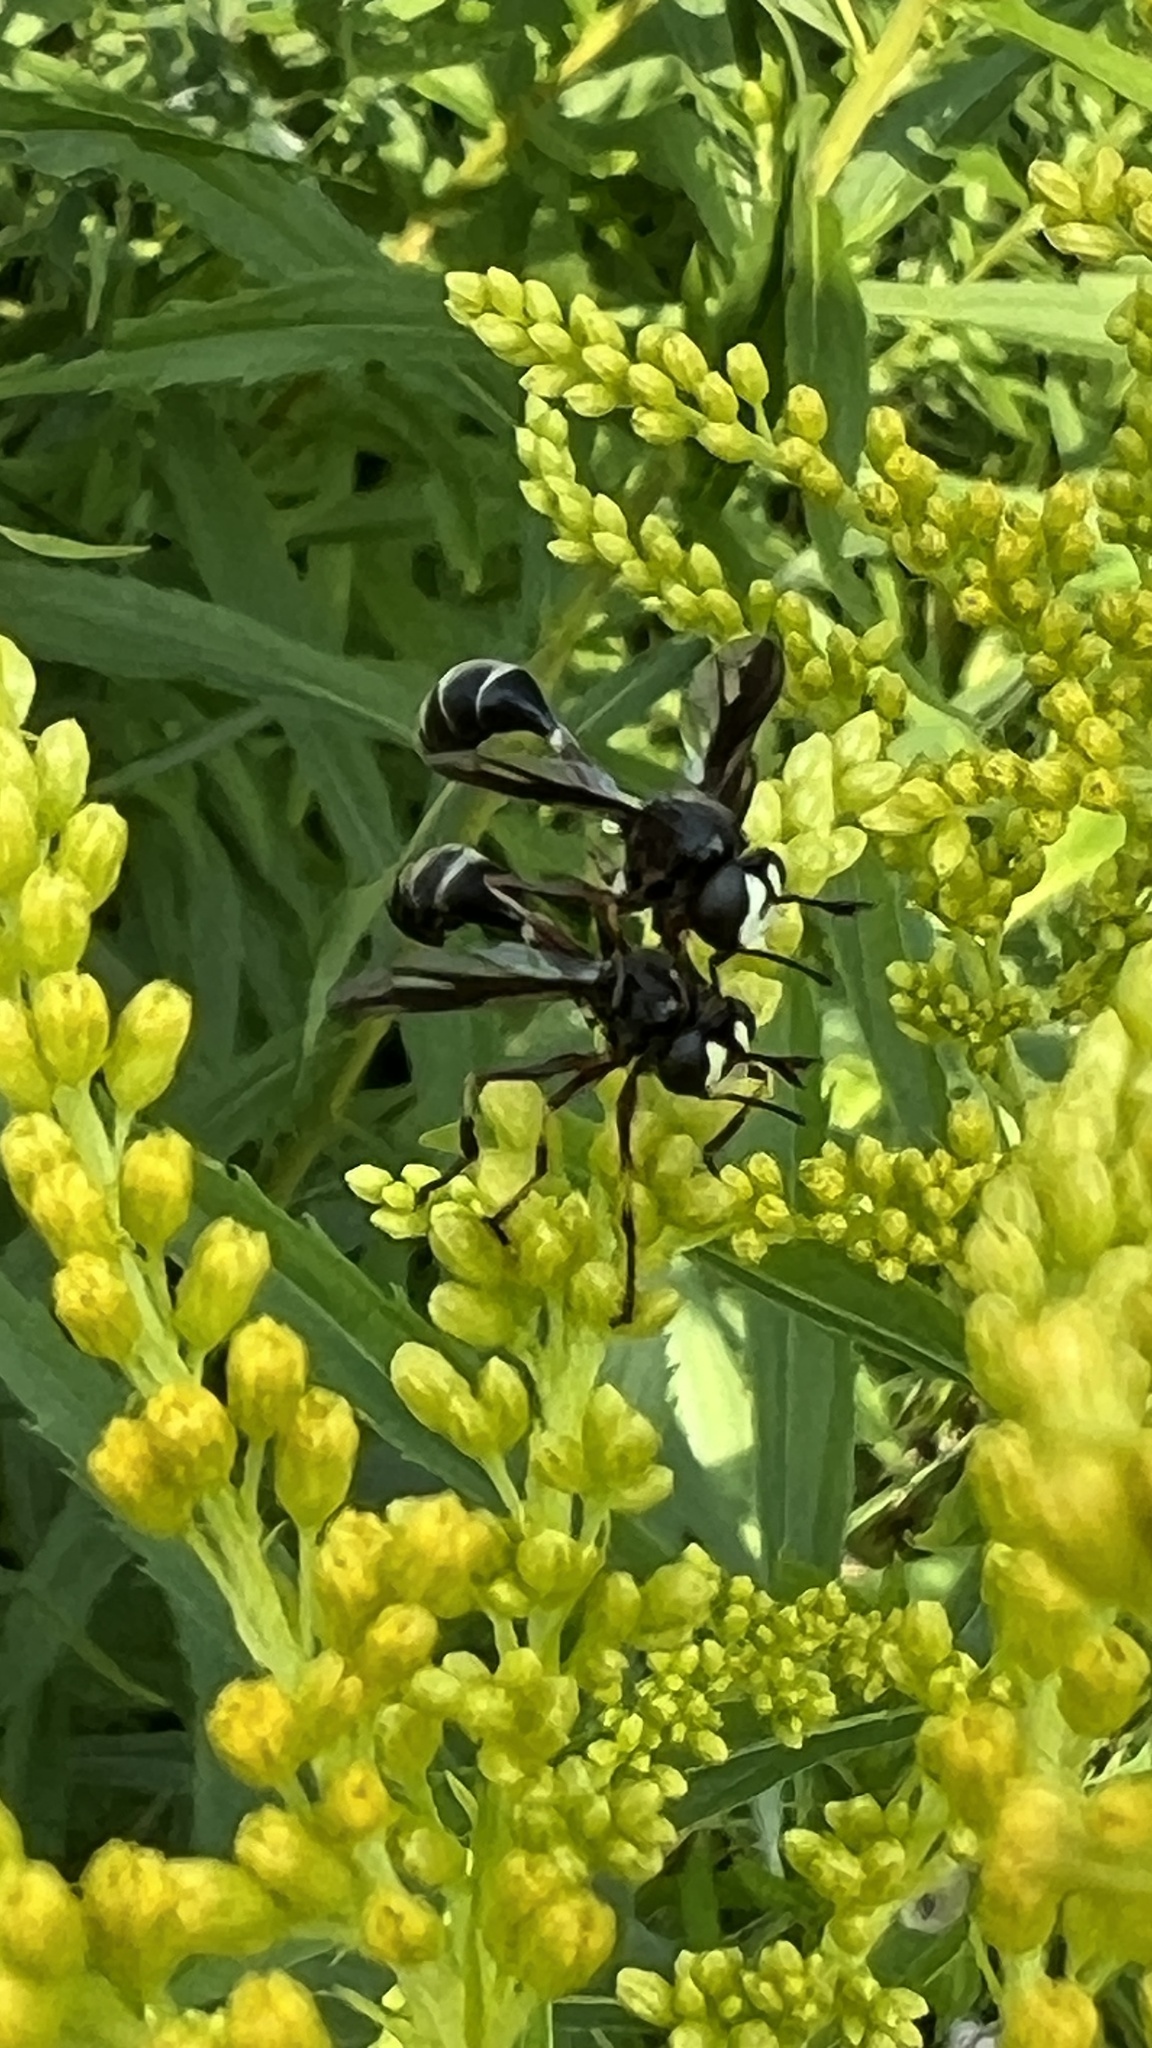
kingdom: Animalia
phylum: Arthropoda
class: Insecta
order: Diptera
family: Conopidae
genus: Physocephala
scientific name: Physocephala furcillata
